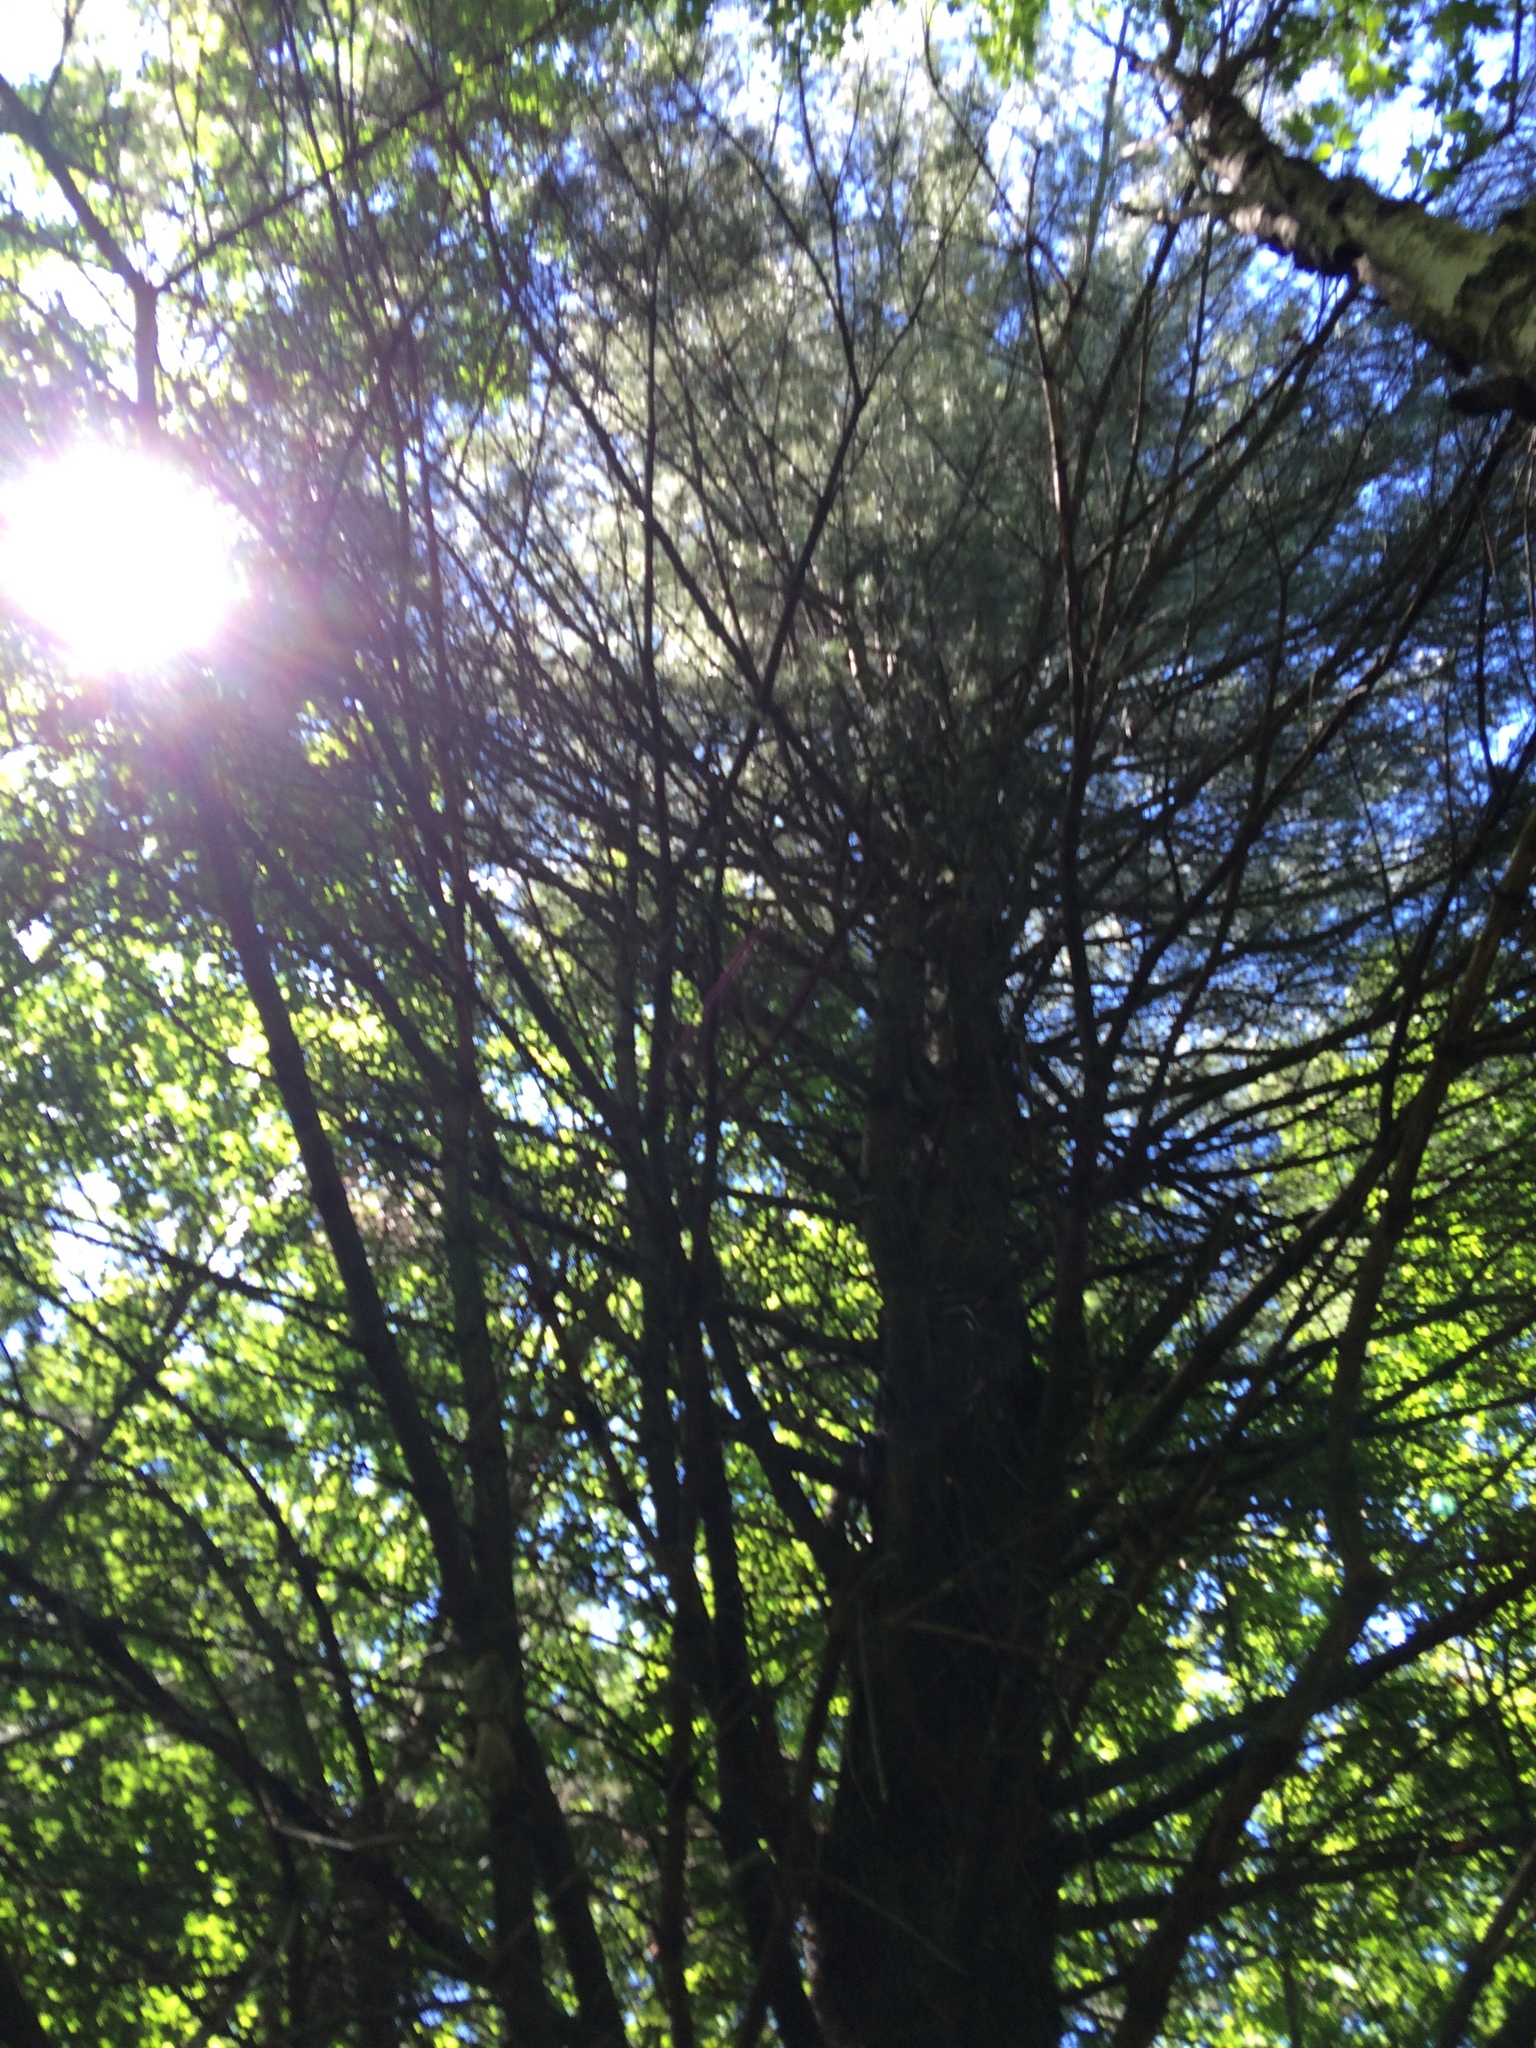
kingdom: Plantae
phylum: Tracheophyta
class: Pinopsida
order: Pinales
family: Pinaceae
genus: Pinus
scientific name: Pinus strobus
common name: Weymouth pine
